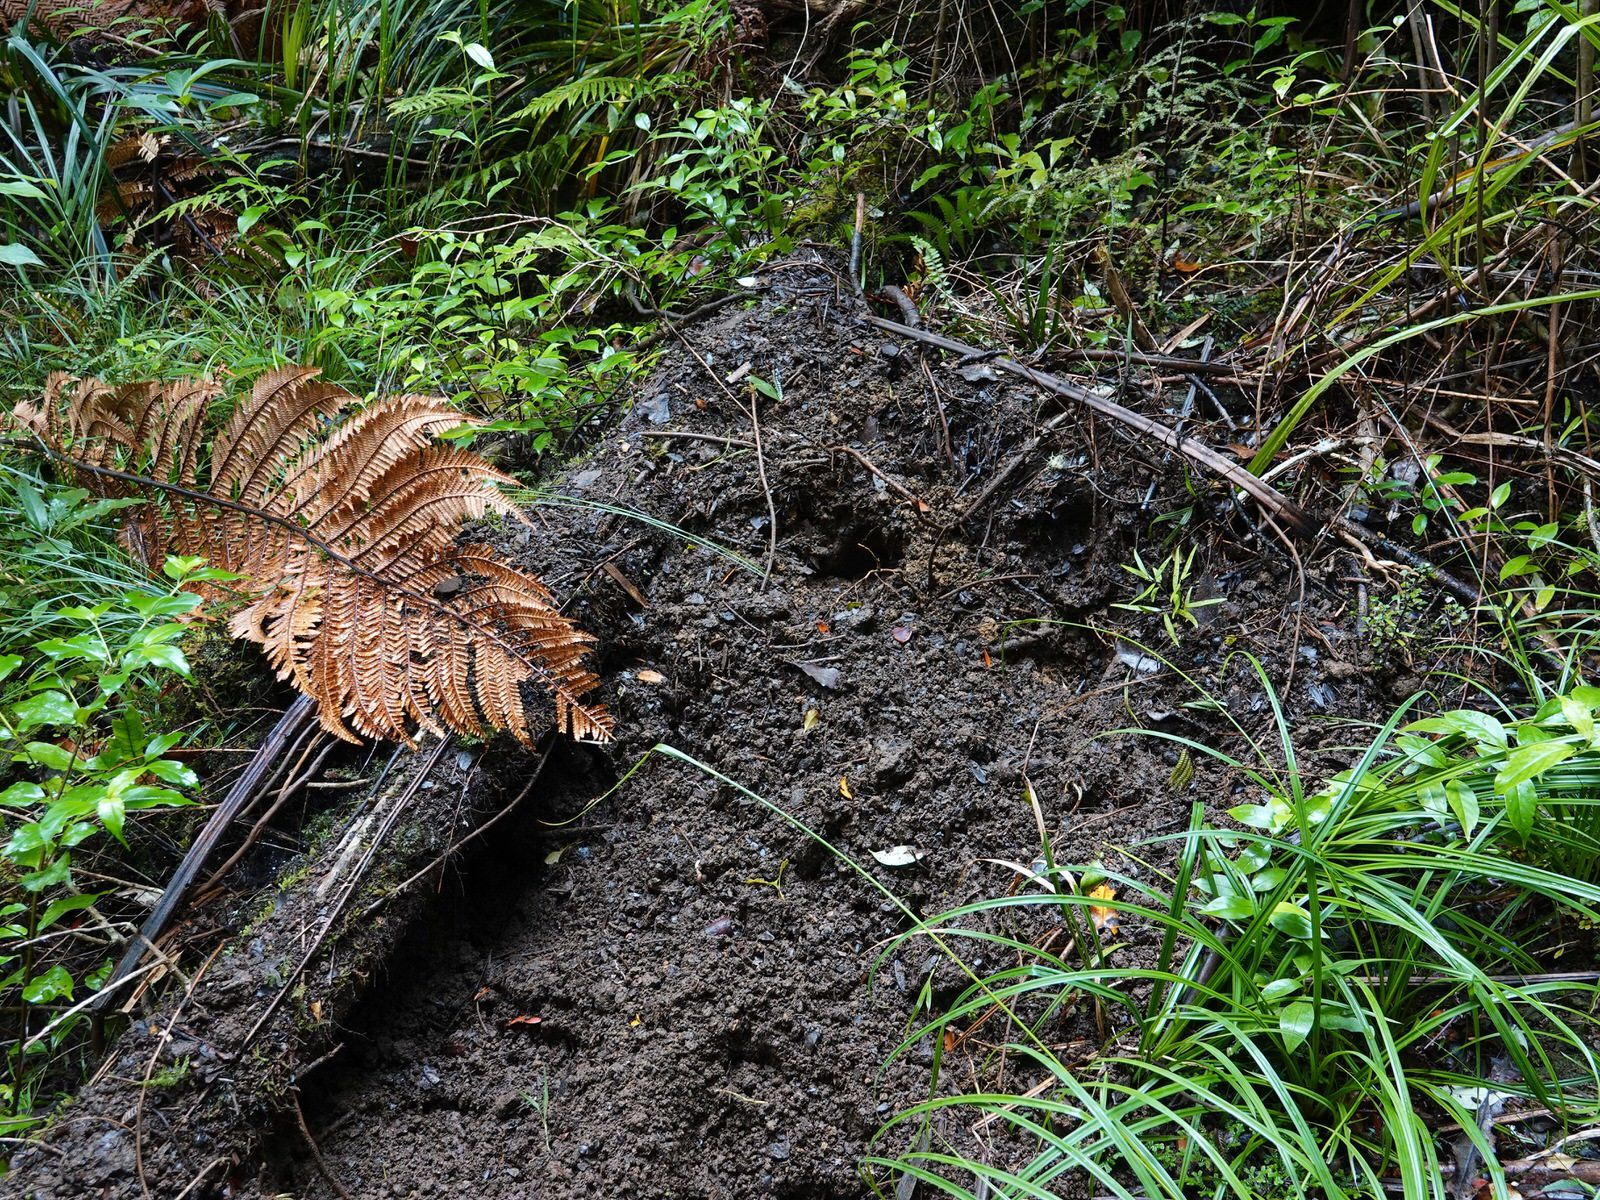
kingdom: Animalia
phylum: Chordata
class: Mammalia
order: Artiodactyla
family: Suidae
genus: Sus
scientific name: Sus scrofa
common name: Wild boar
